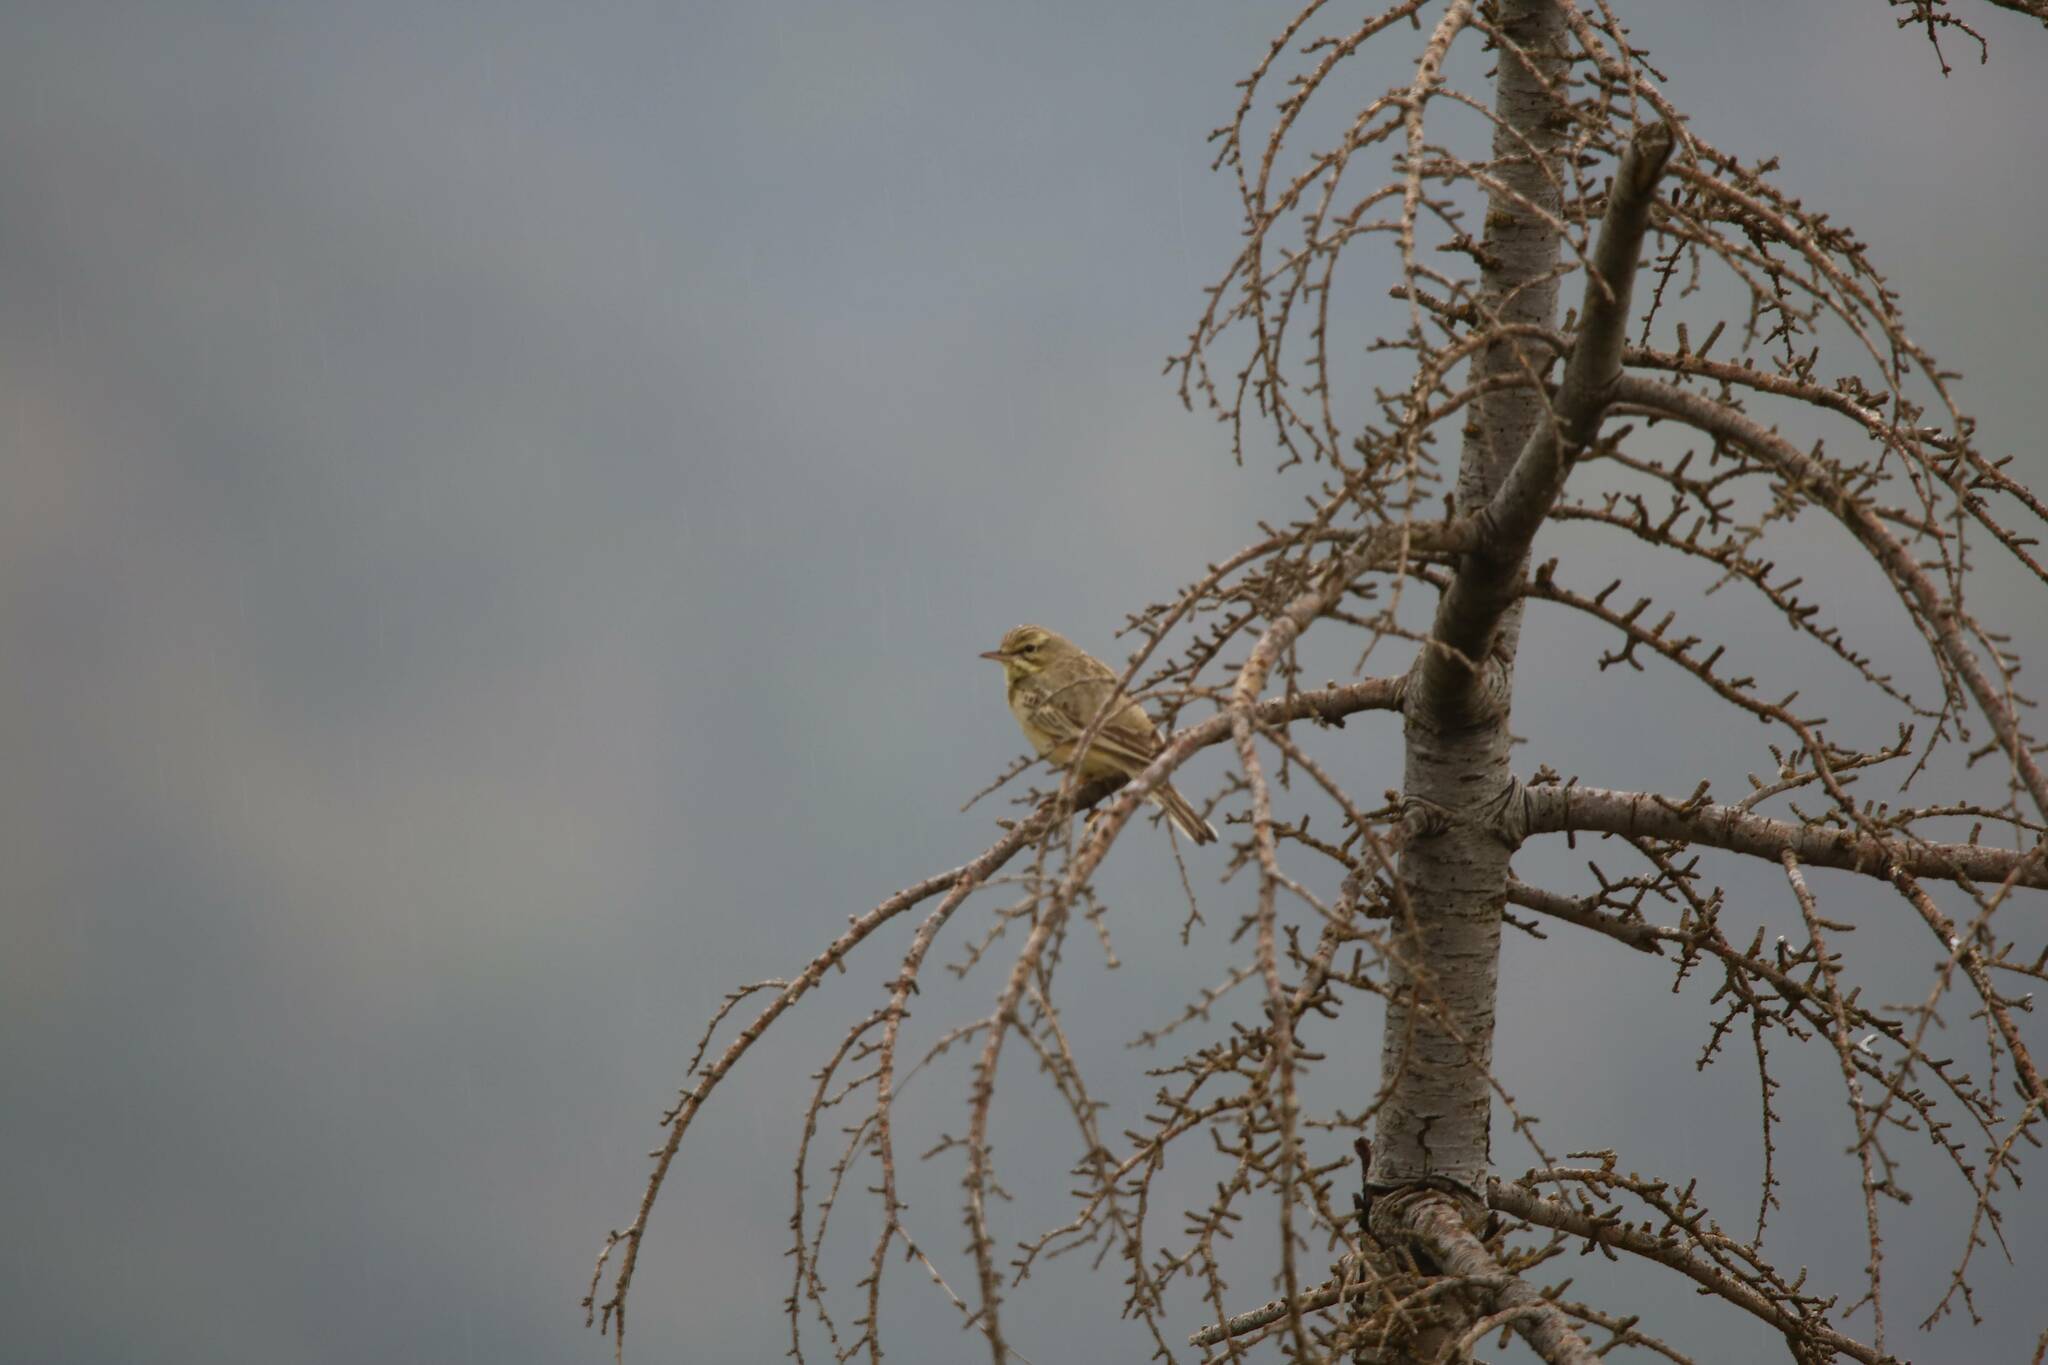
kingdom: Animalia
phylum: Chordata
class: Aves
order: Passeriformes
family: Motacillidae
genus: Anthus
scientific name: Anthus campestris
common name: Tawny pipit
